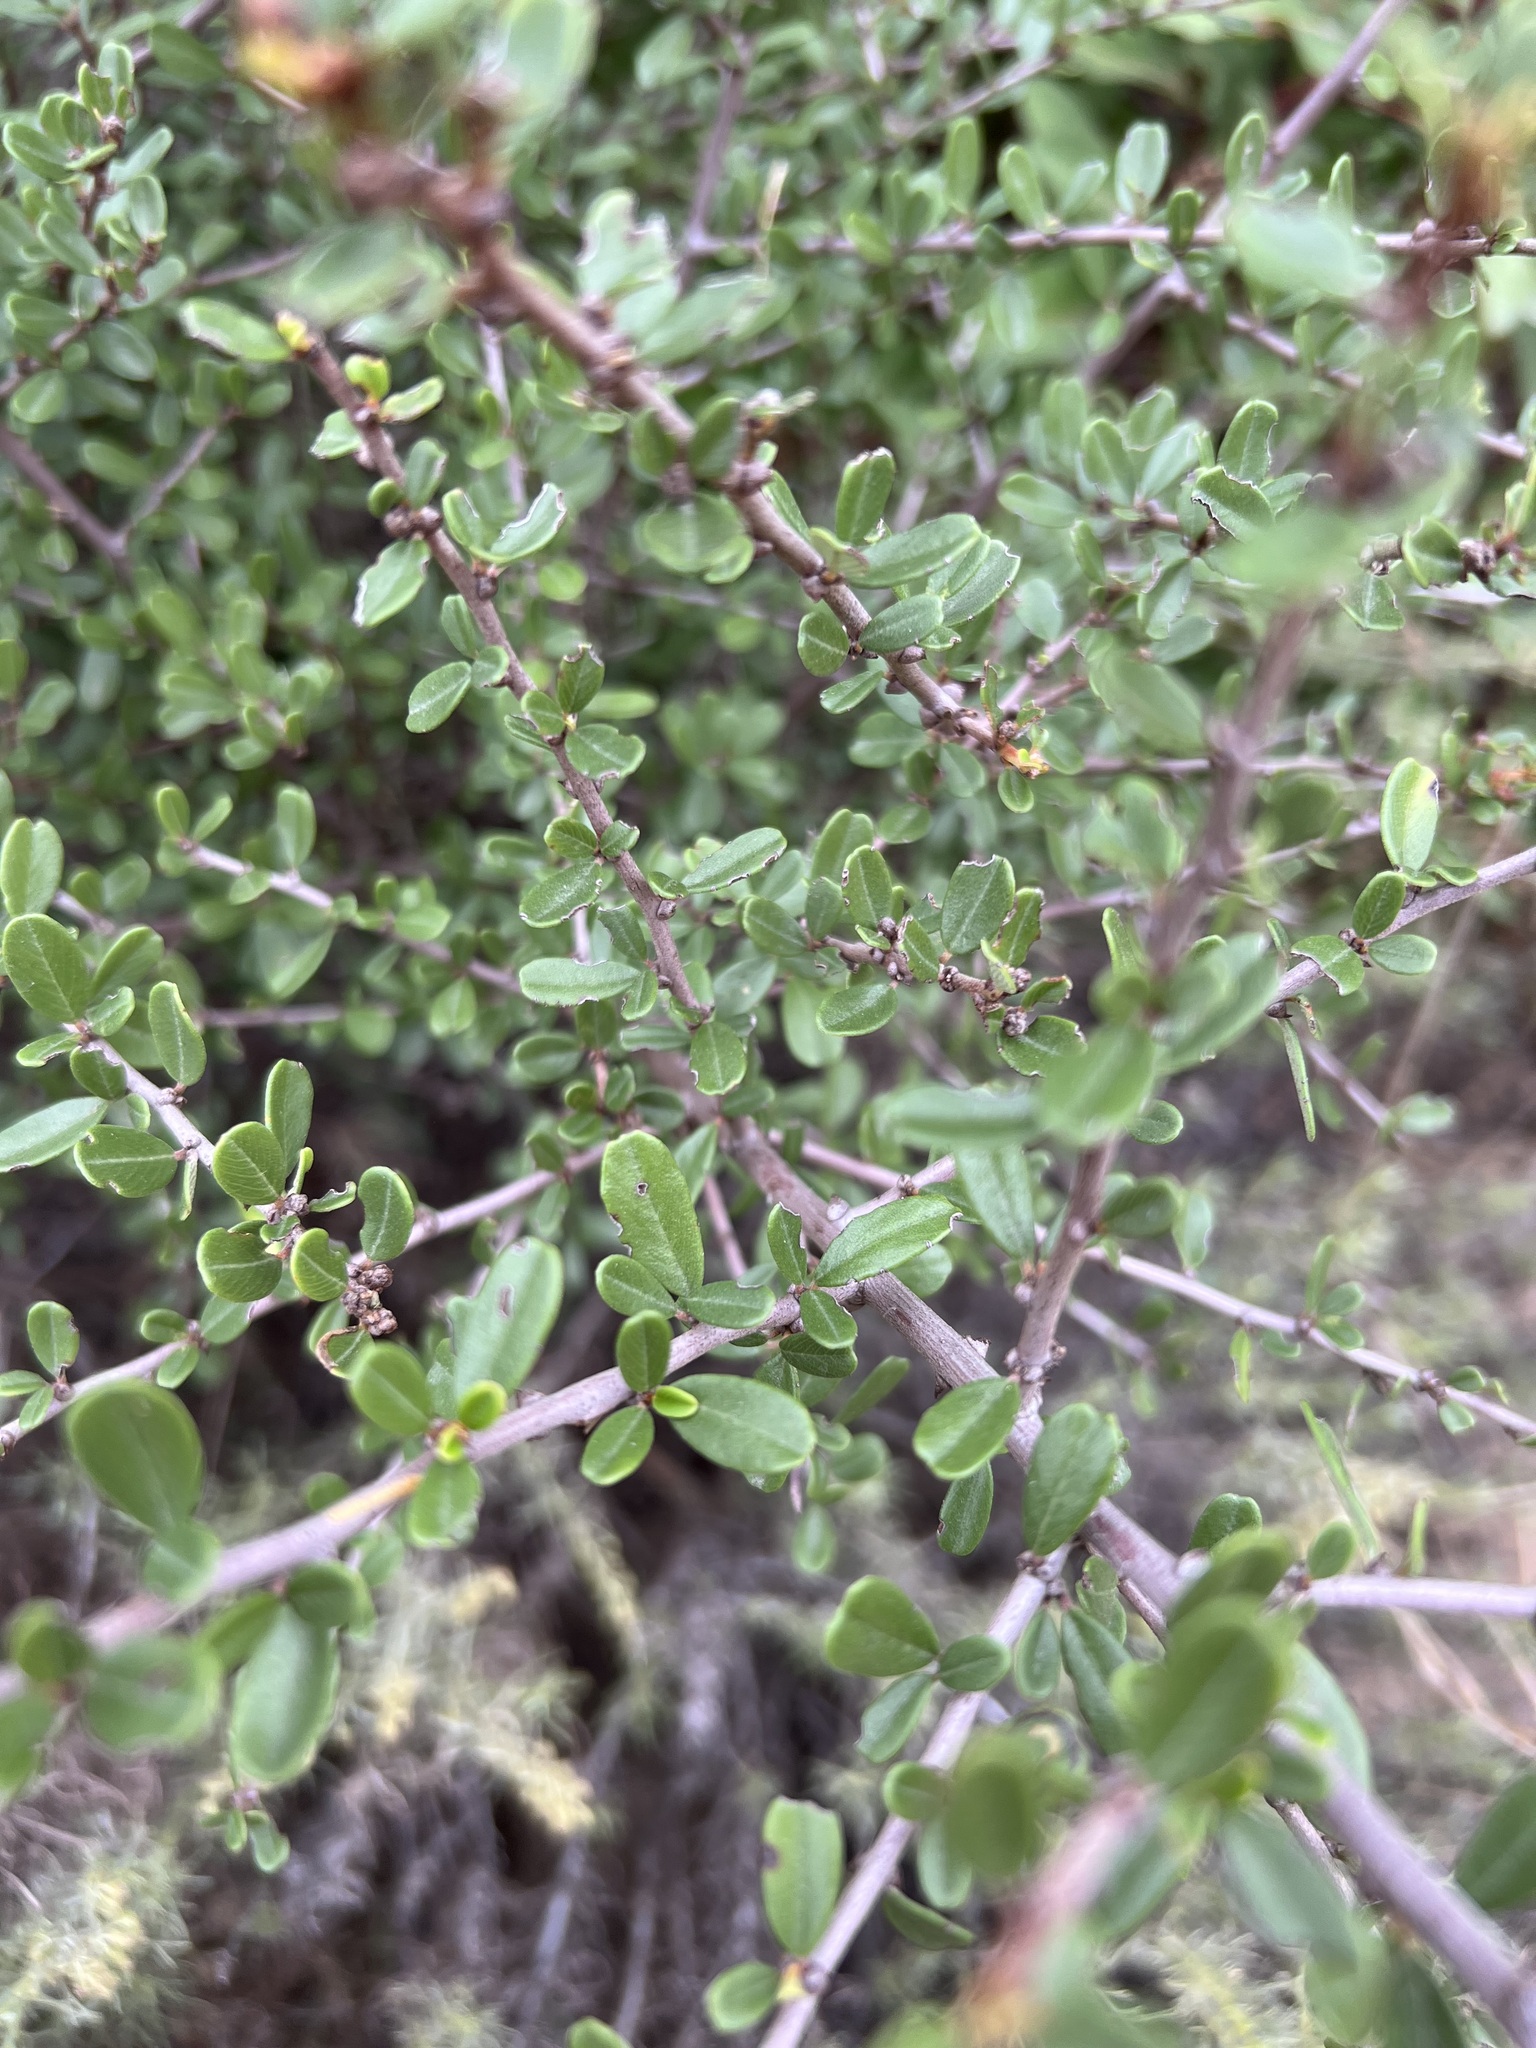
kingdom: Plantae
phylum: Tracheophyta
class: Magnoliopsida
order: Rosales
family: Rhamnaceae
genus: Ceanothus
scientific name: Ceanothus megacarpus
